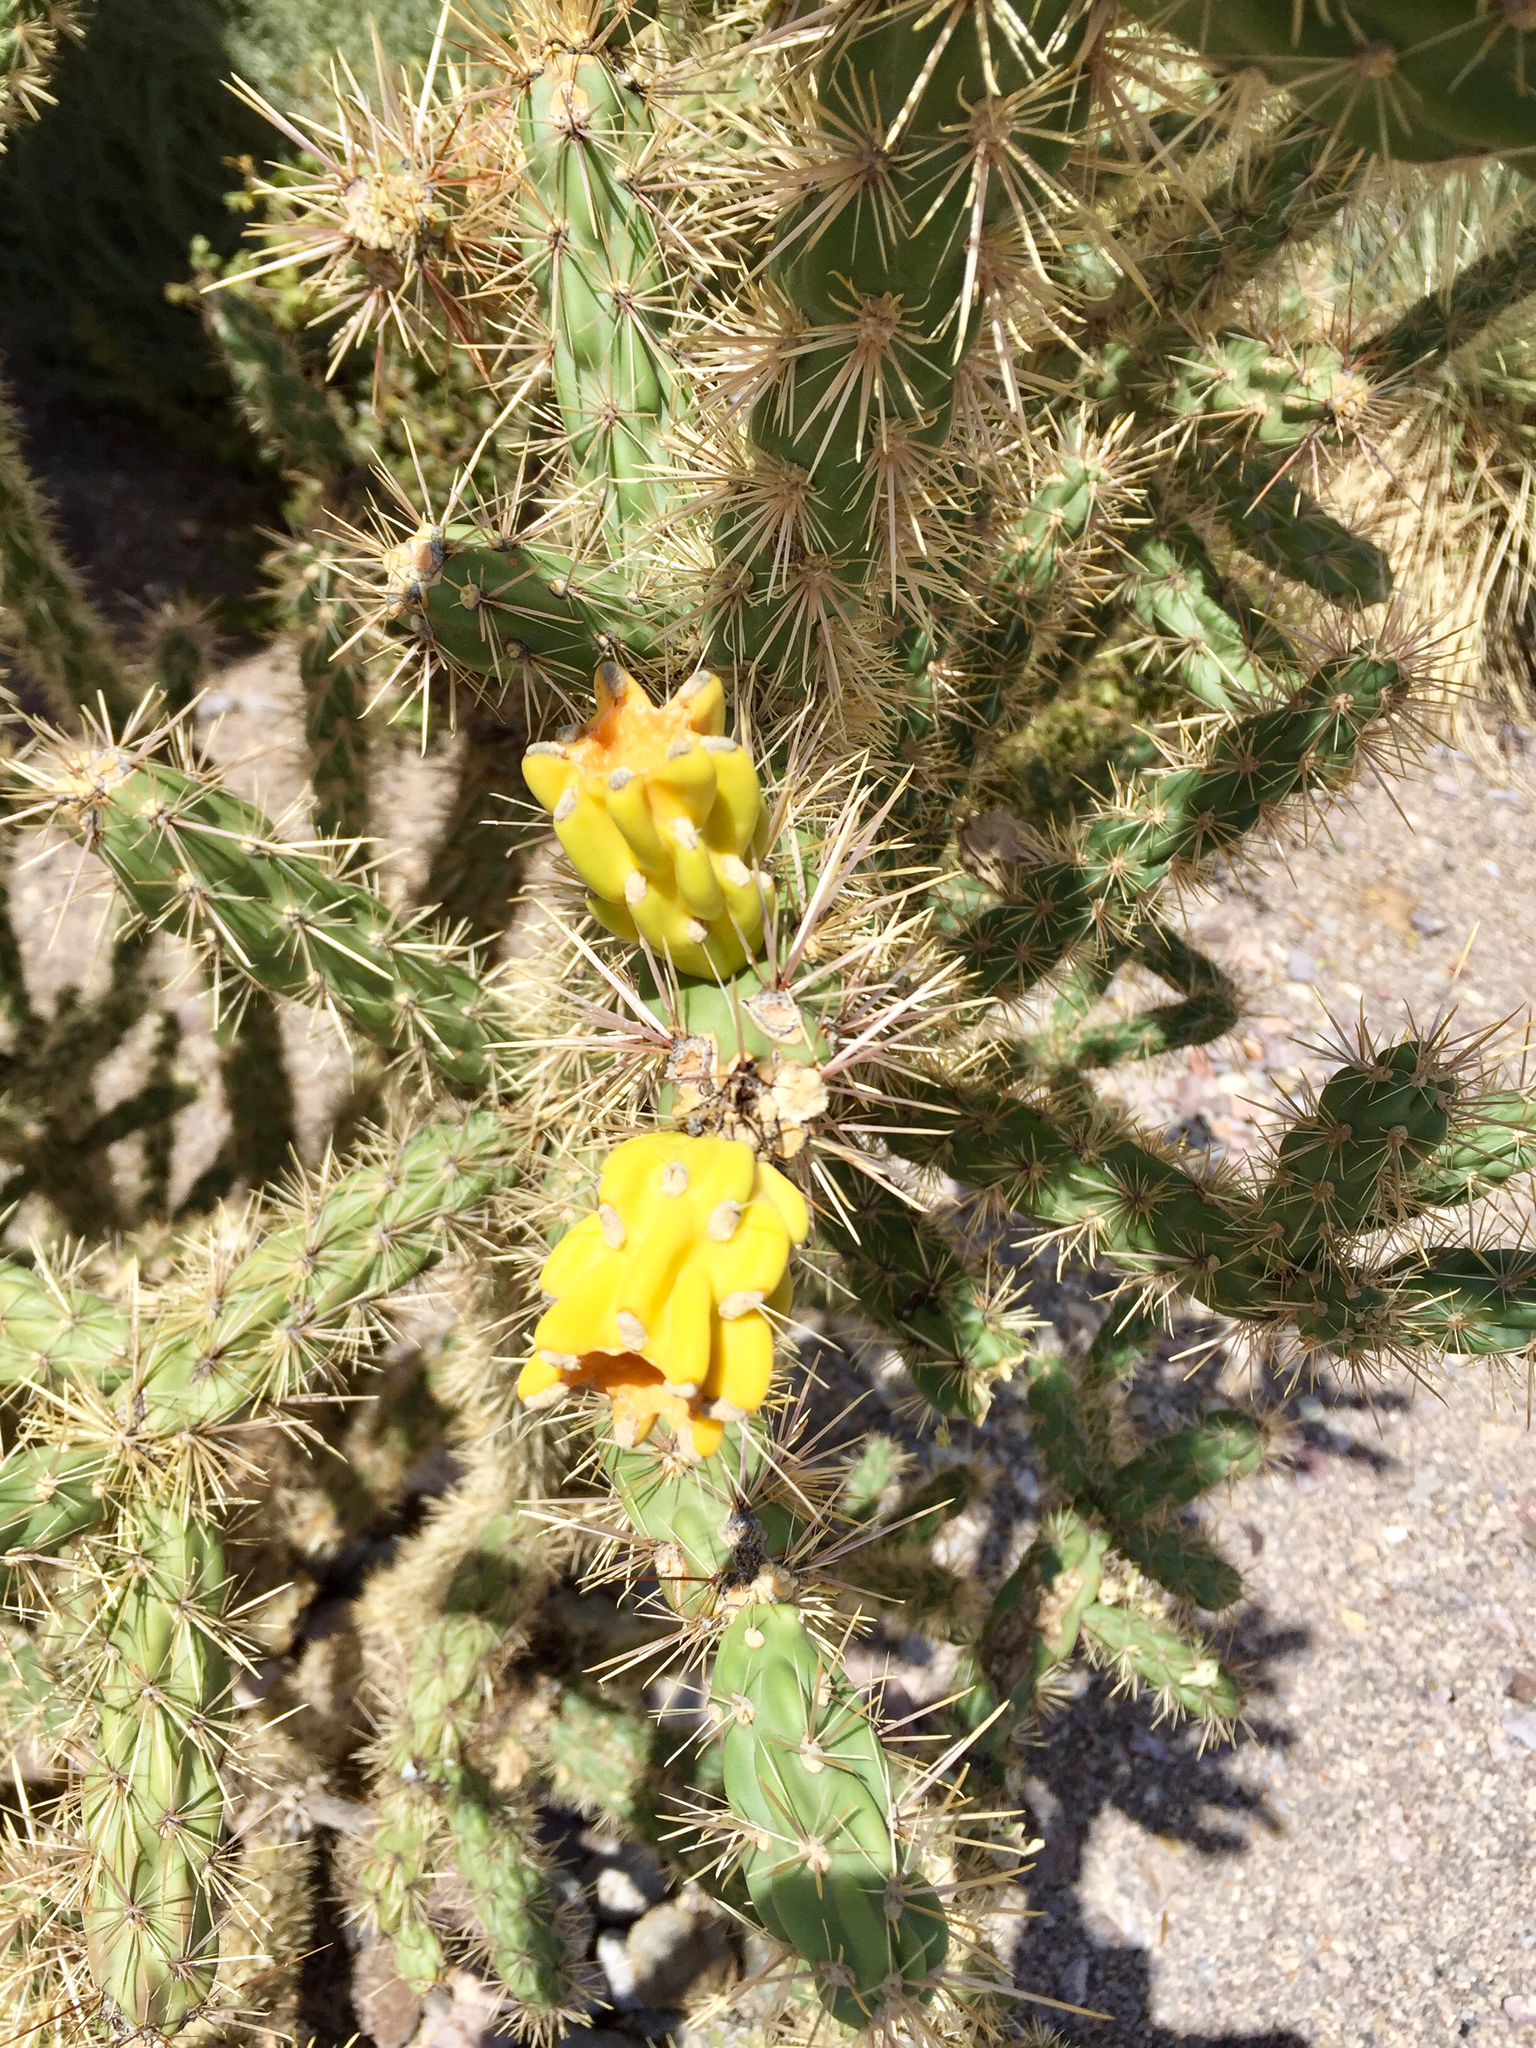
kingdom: Plantae
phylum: Tracheophyta
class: Magnoliopsida
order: Caryophyllales
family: Cactaceae
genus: Cylindropuntia
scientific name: Cylindropuntia imbricata
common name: Candelabrum cactus
